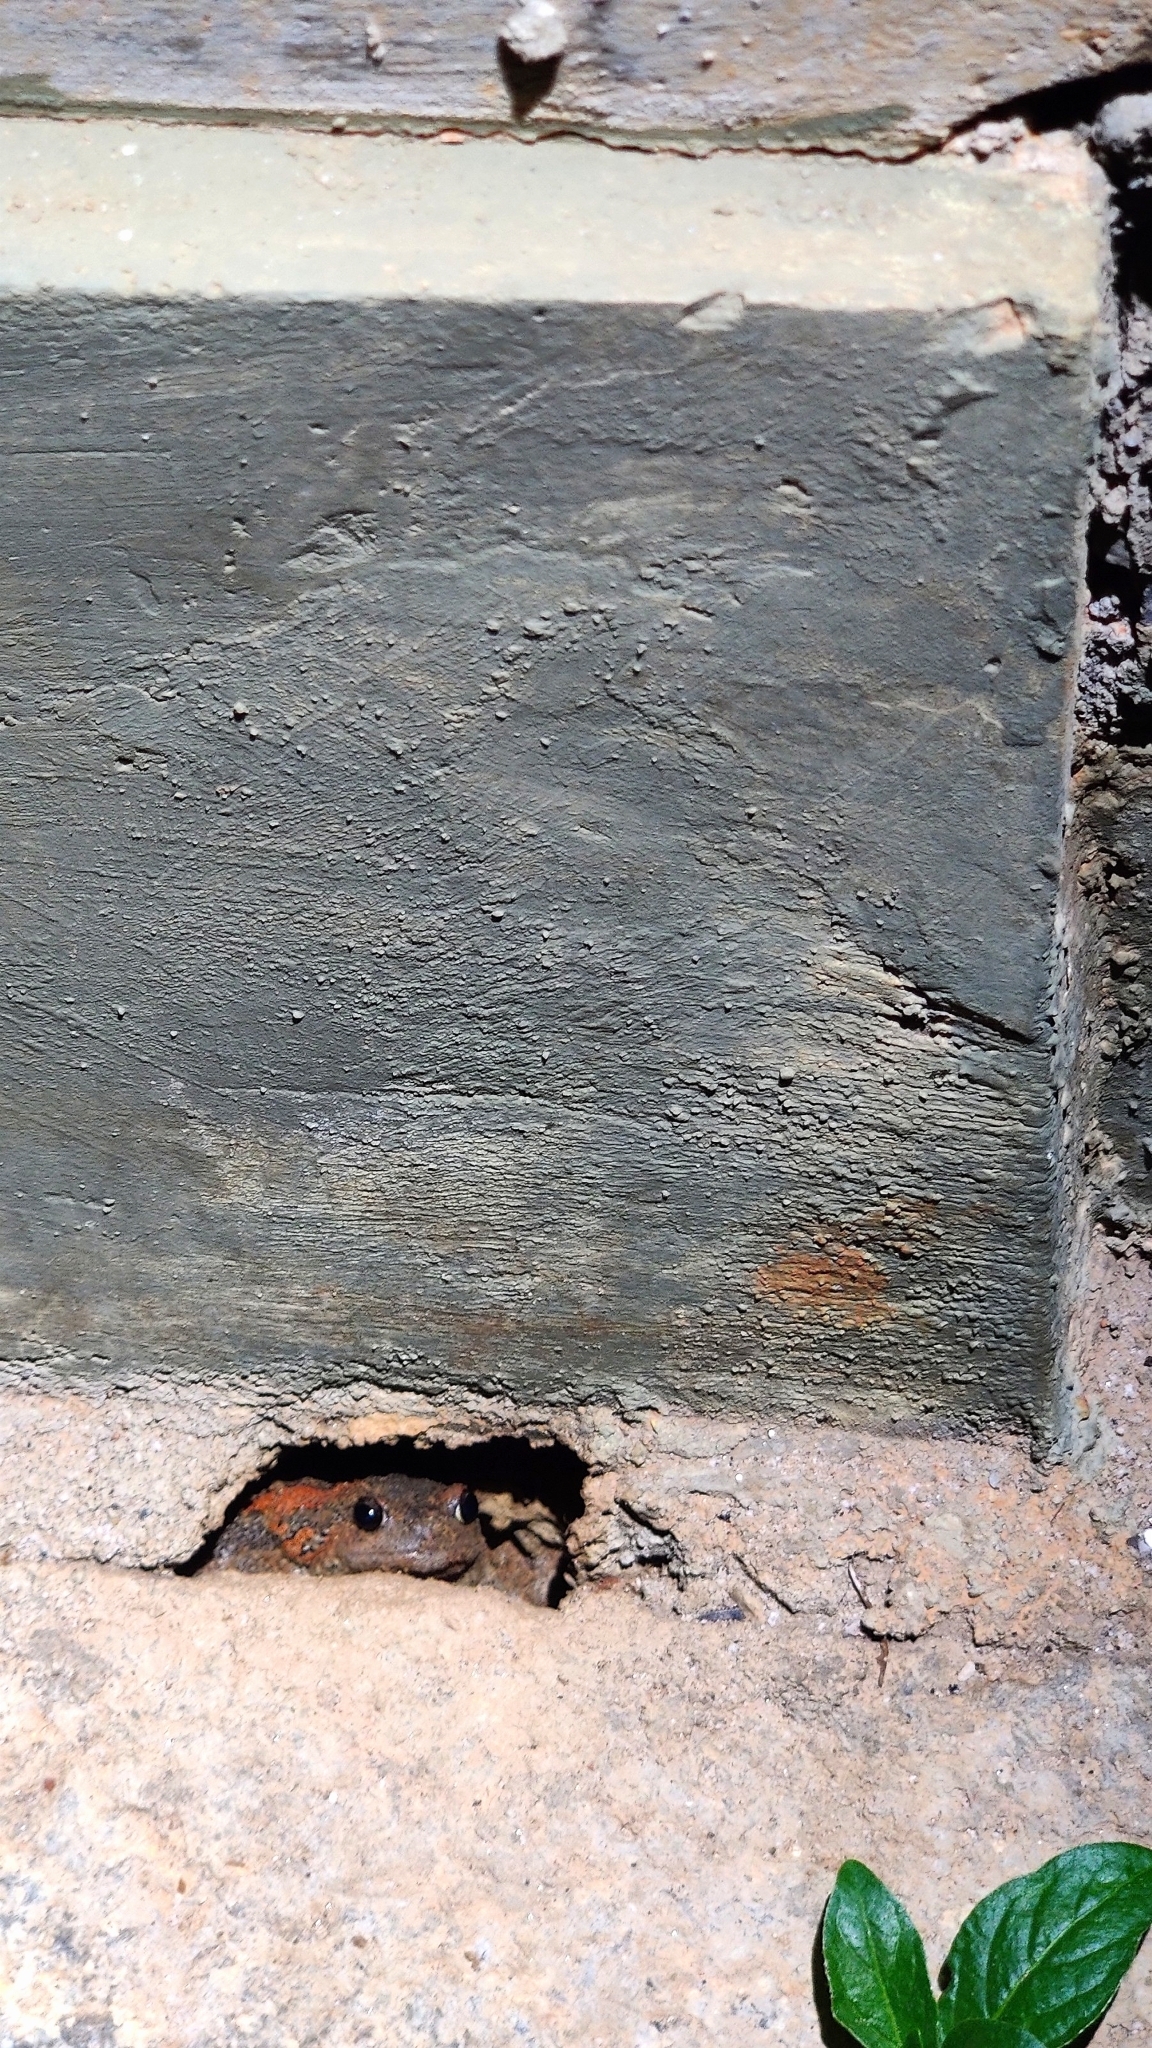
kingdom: Animalia
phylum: Chordata
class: Amphibia
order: Anura
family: Microhylidae
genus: Uperodon
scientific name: Uperodon taprobanicus
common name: Ceylon kaloula
